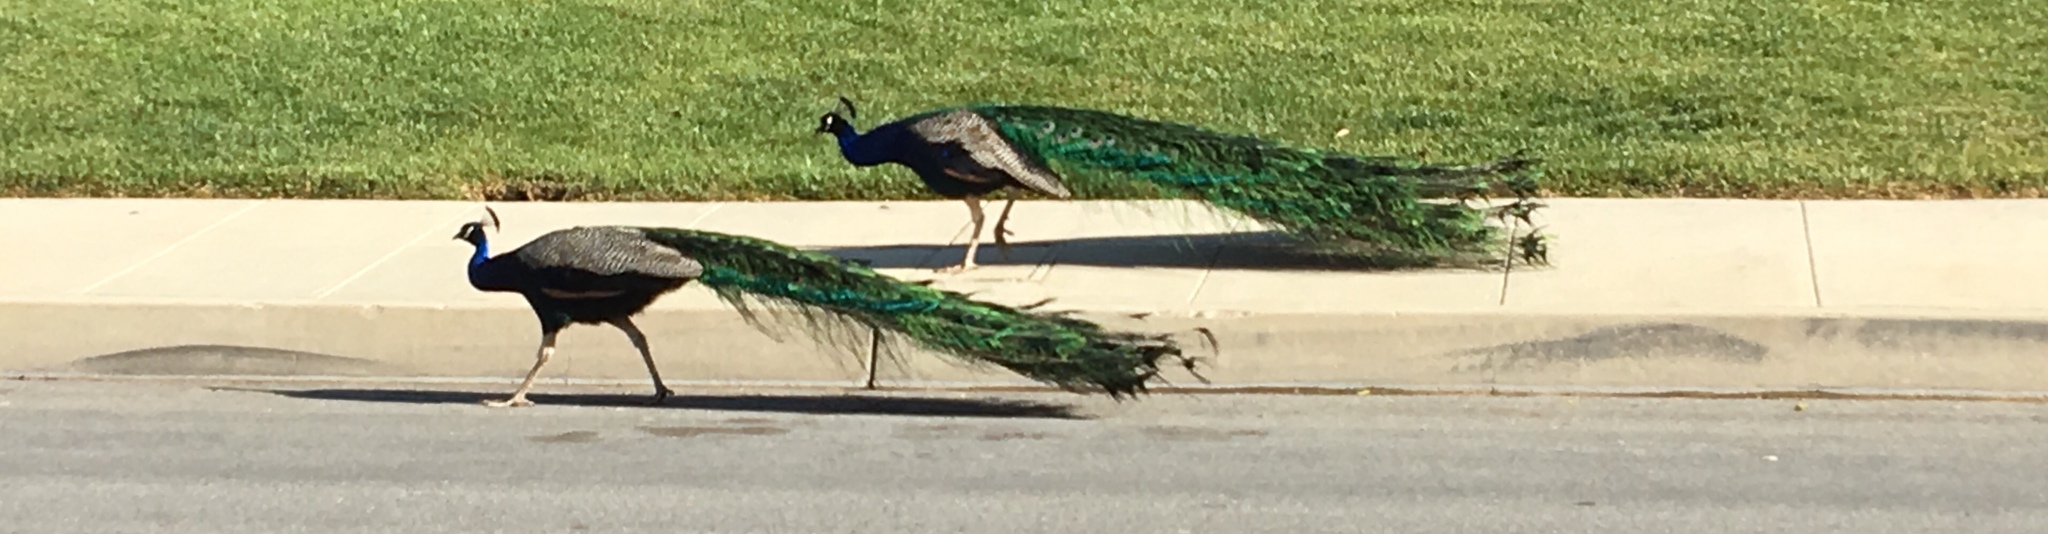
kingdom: Animalia
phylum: Chordata
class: Aves
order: Galliformes
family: Phasianidae
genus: Pavo
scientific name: Pavo cristatus
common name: Indian peafowl
